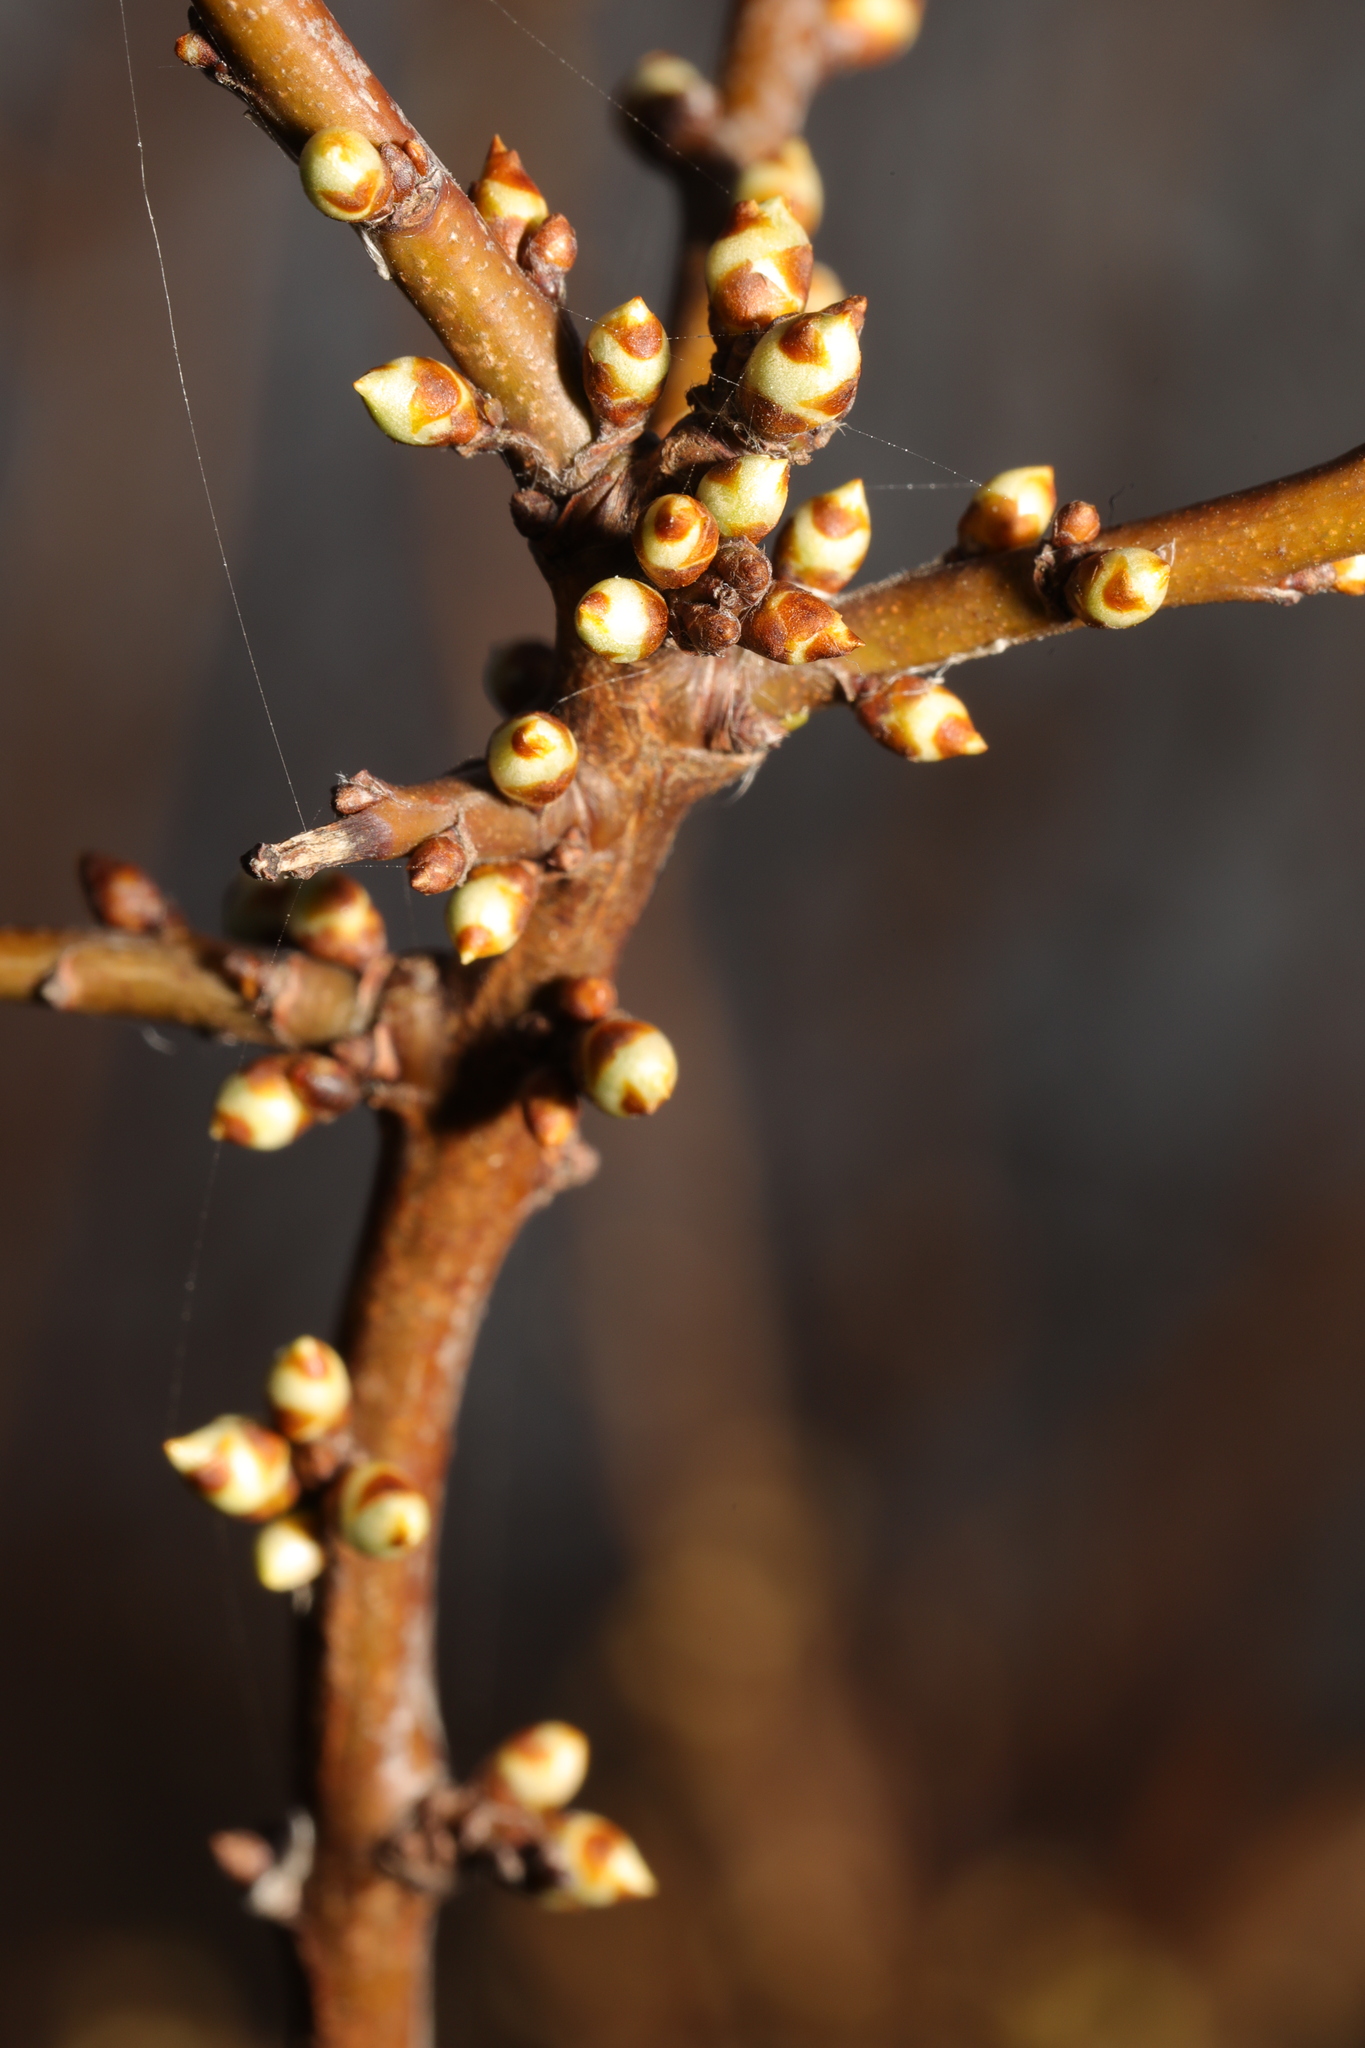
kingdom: Plantae
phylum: Tracheophyta
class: Magnoliopsida
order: Rosales
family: Rosaceae
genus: Prunus
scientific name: Prunus spinosa
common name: Blackthorn
